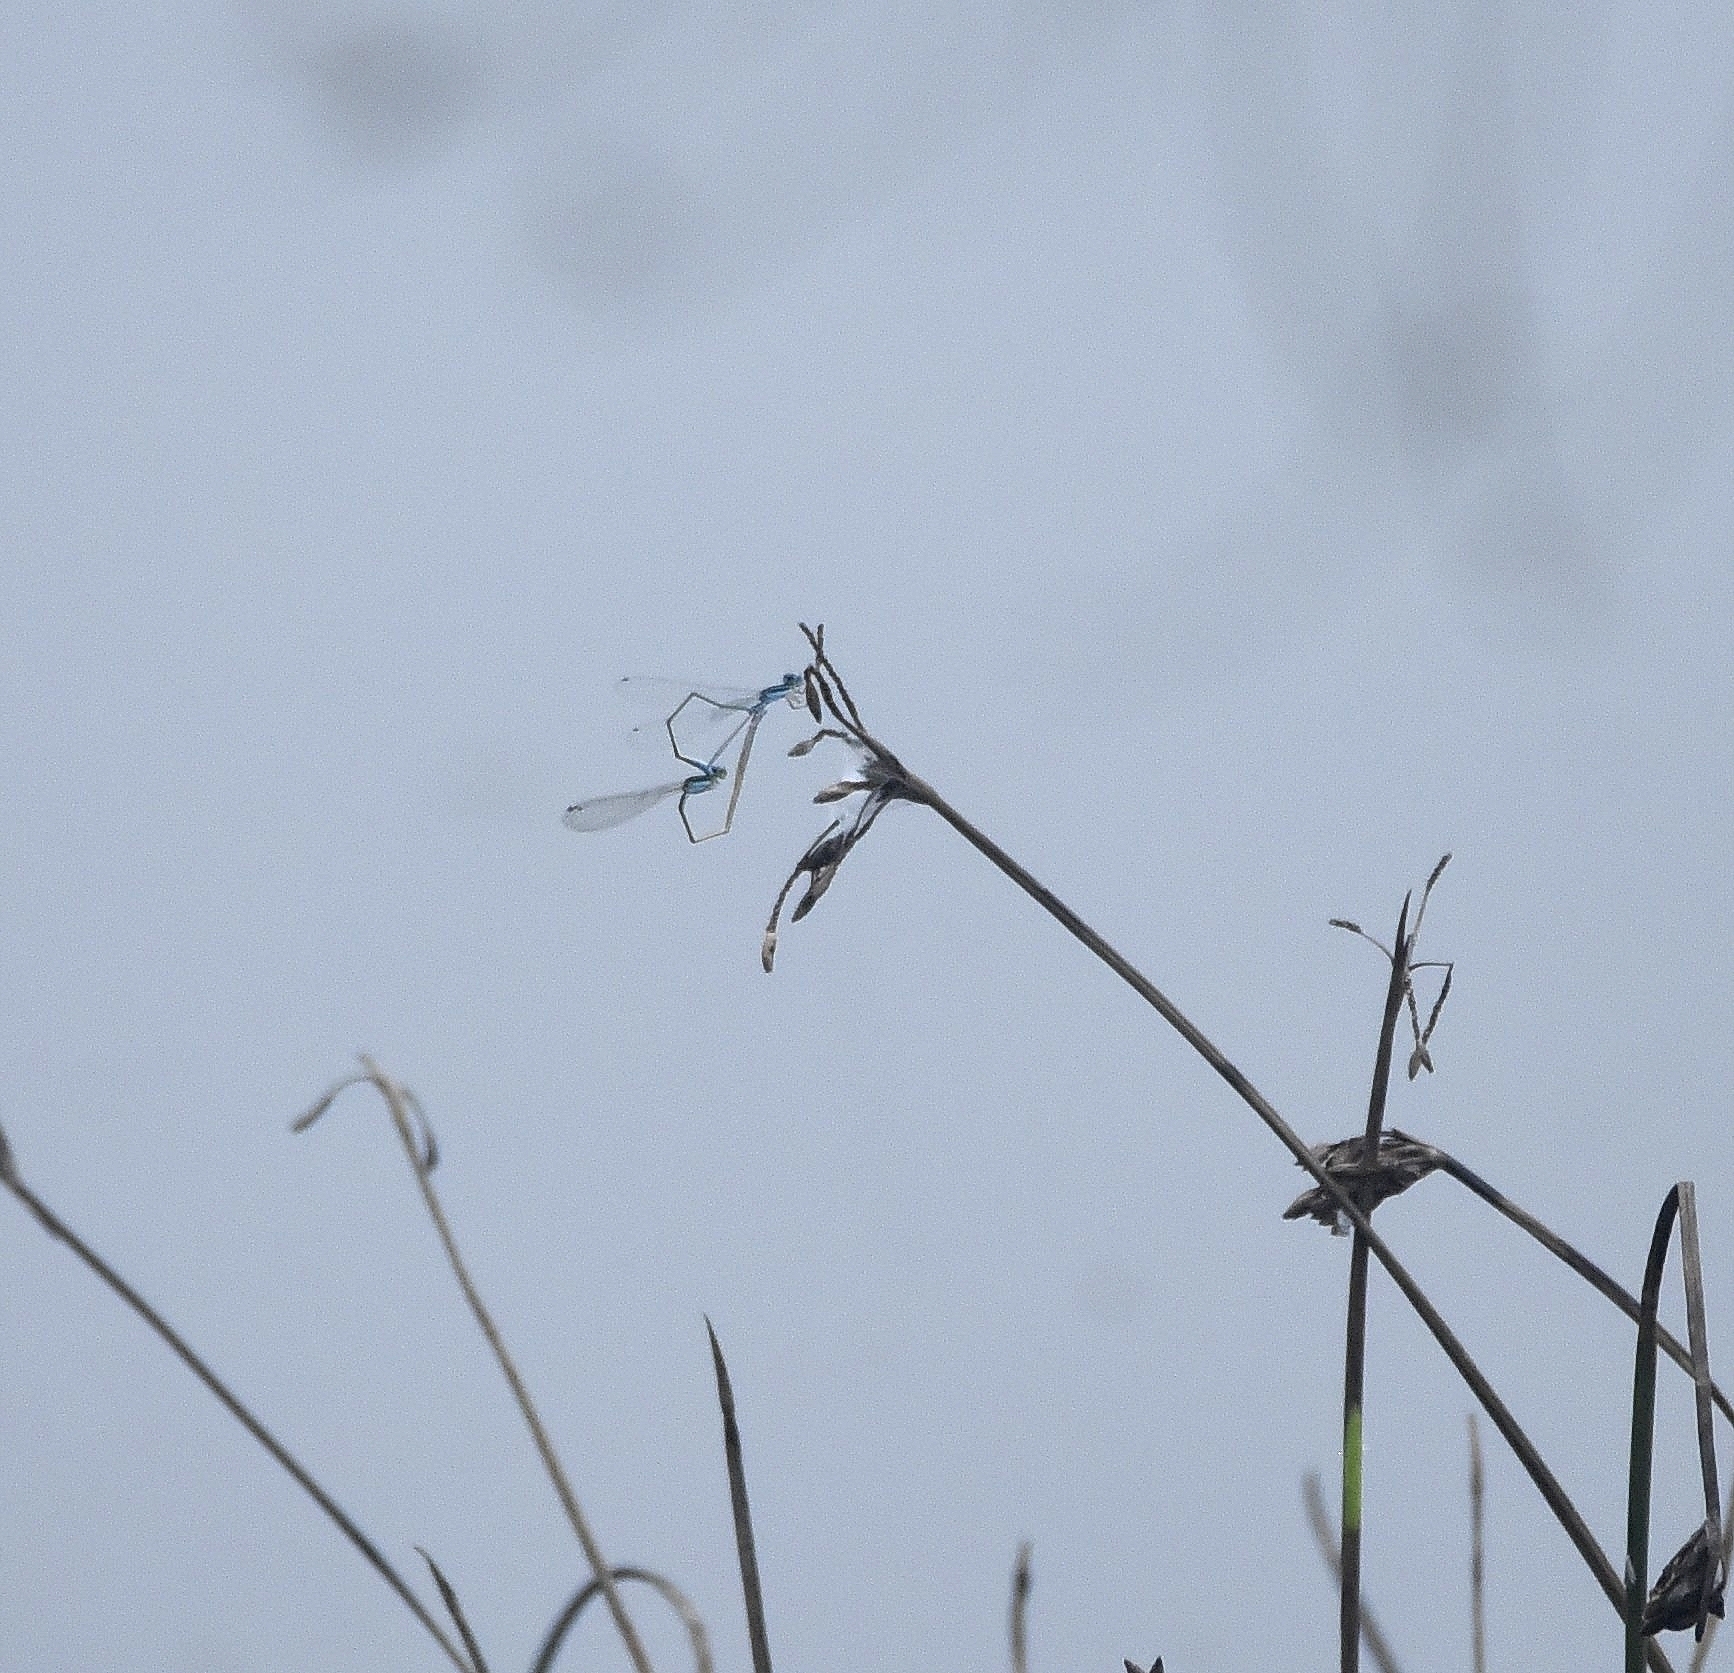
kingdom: Animalia
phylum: Arthropoda
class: Insecta
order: Odonata
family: Coenagrionidae
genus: Aciagrion
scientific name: Aciagrion occidentale
